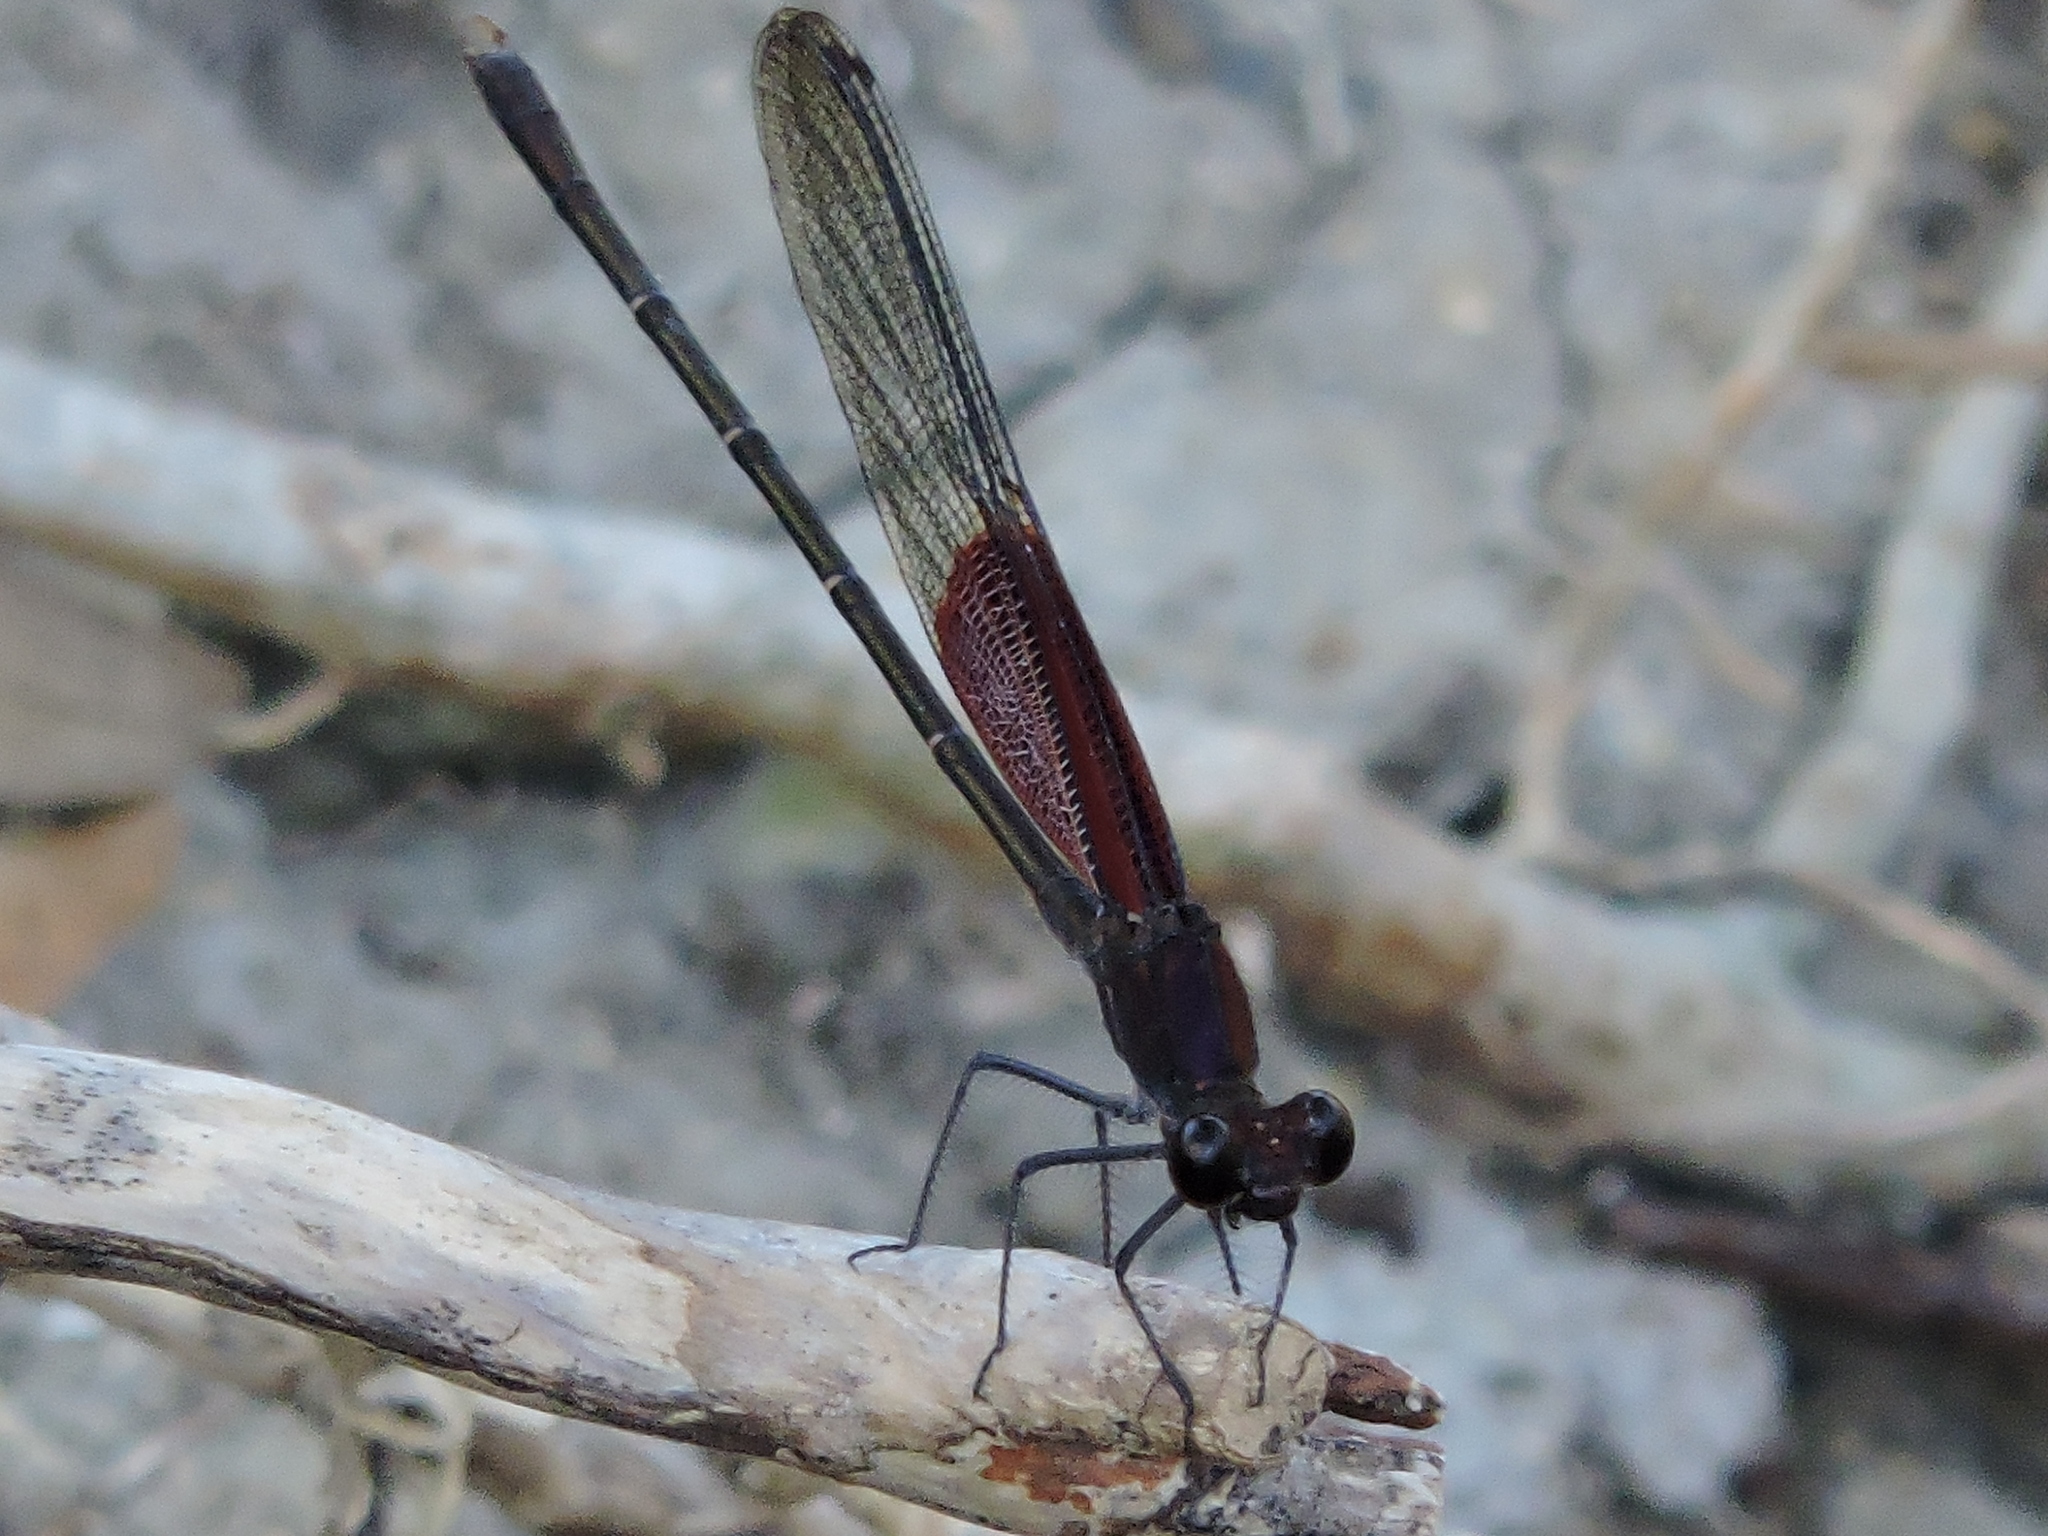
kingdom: Animalia
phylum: Arthropoda
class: Insecta
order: Odonata
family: Calopterygidae
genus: Hetaerina
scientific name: Hetaerina americana
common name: American rubyspot
